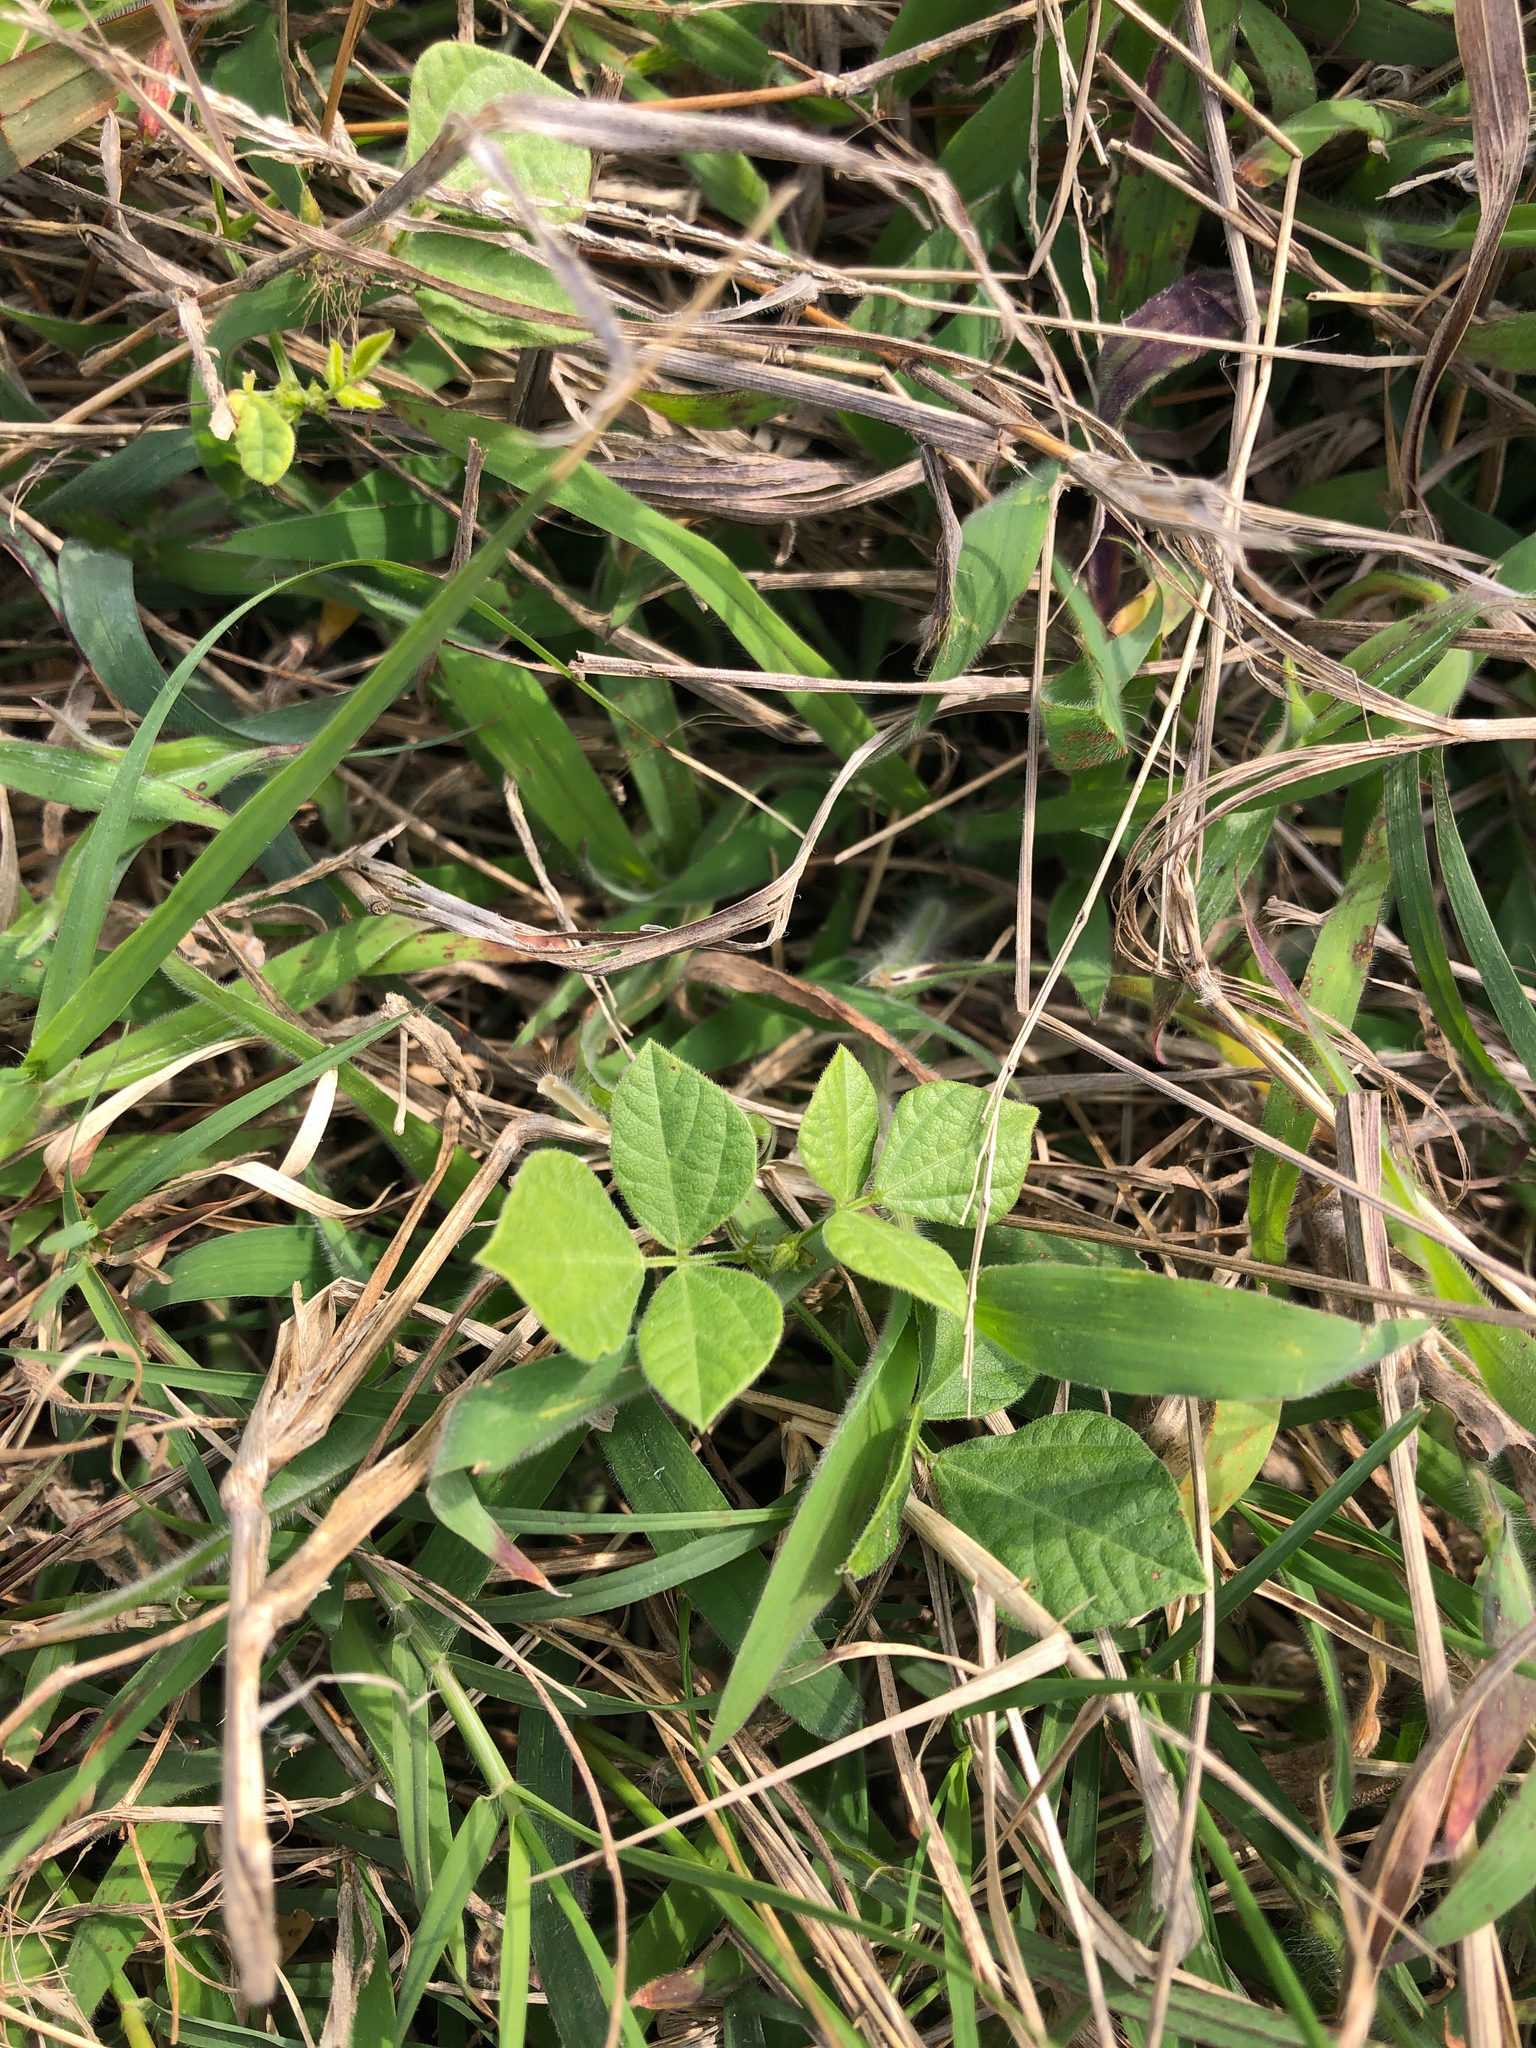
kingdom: Plantae
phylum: Tracheophyta
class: Magnoliopsida
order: Fabales
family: Fabaceae
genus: Rhynchosia
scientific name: Rhynchosia minima
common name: Least snoutbean
